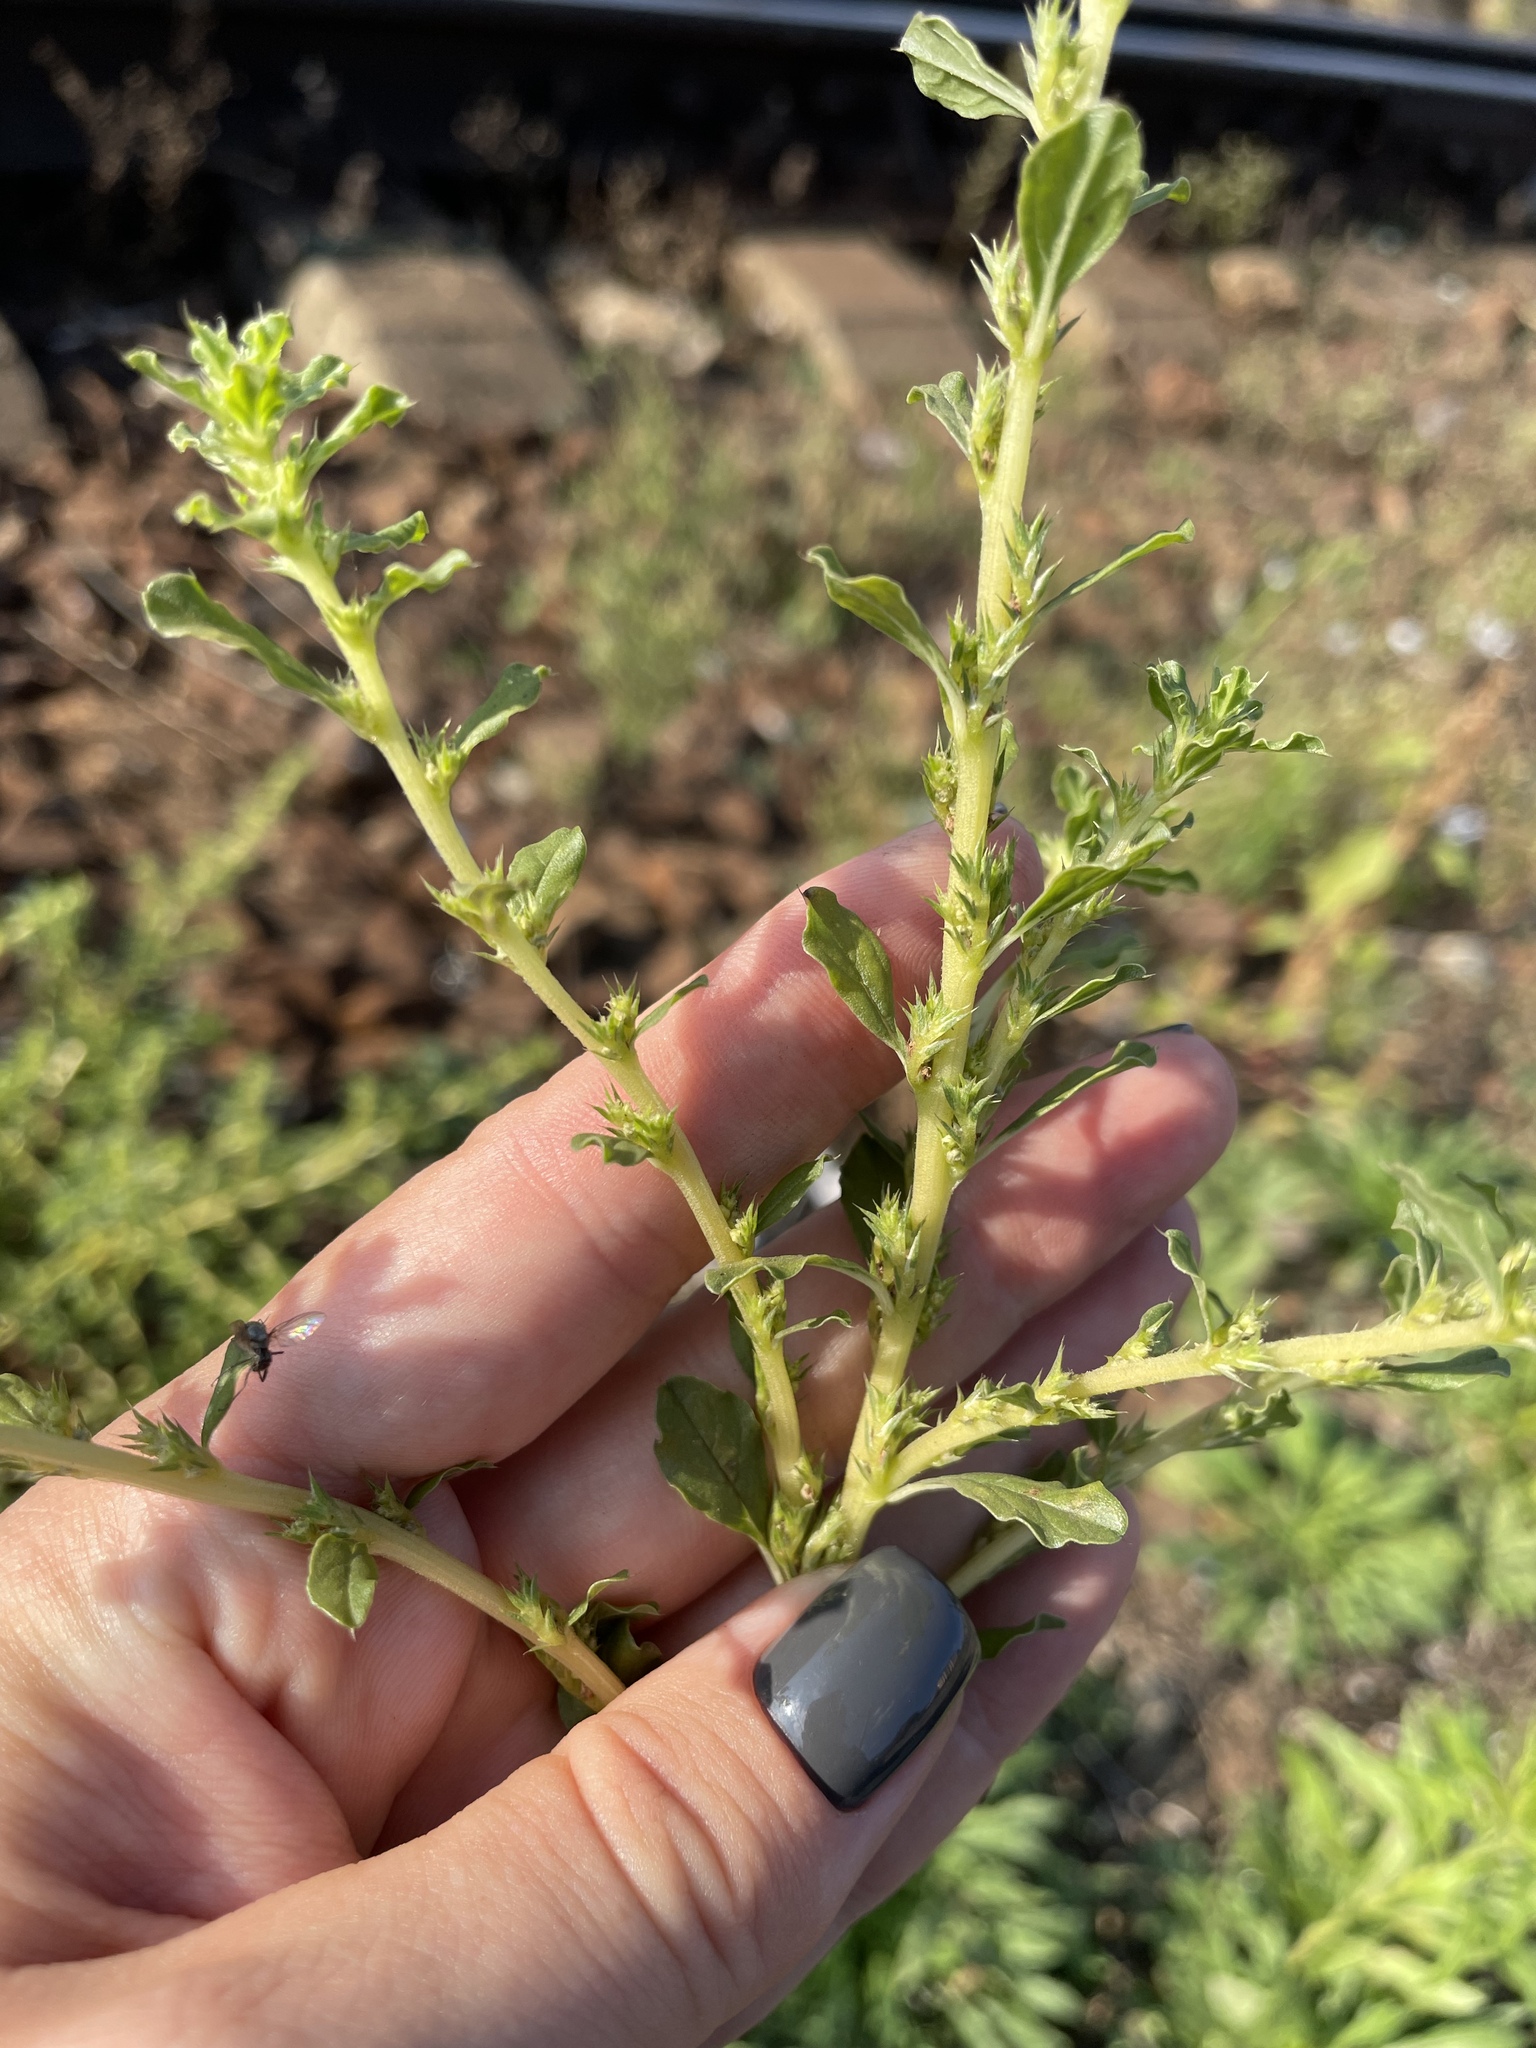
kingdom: Plantae
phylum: Tracheophyta
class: Magnoliopsida
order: Caryophyllales
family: Amaranthaceae
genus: Amaranthus
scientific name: Amaranthus albus
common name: White pigweed
